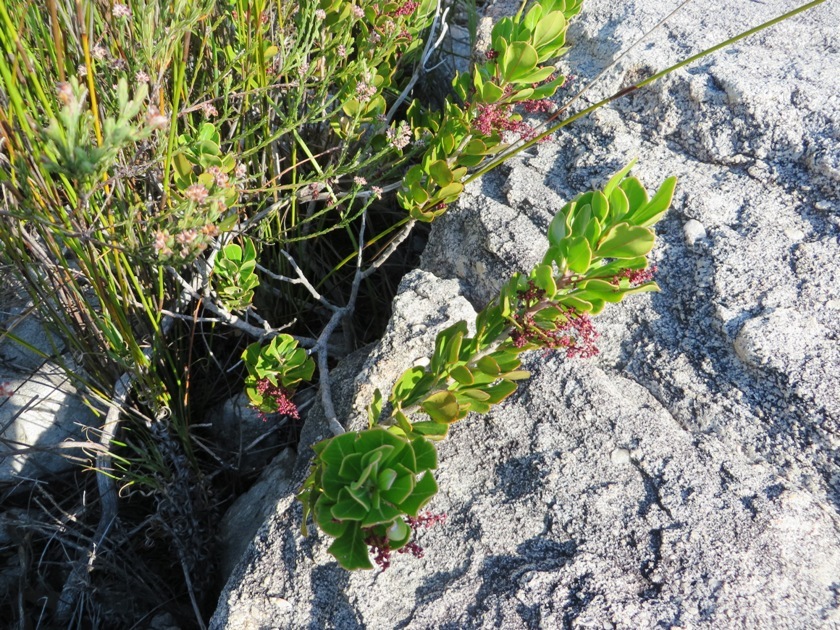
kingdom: Plantae
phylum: Tracheophyta
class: Magnoliopsida
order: Sapindales
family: Anacardiaceae
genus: Searsia
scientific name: Searsia scytophylla
